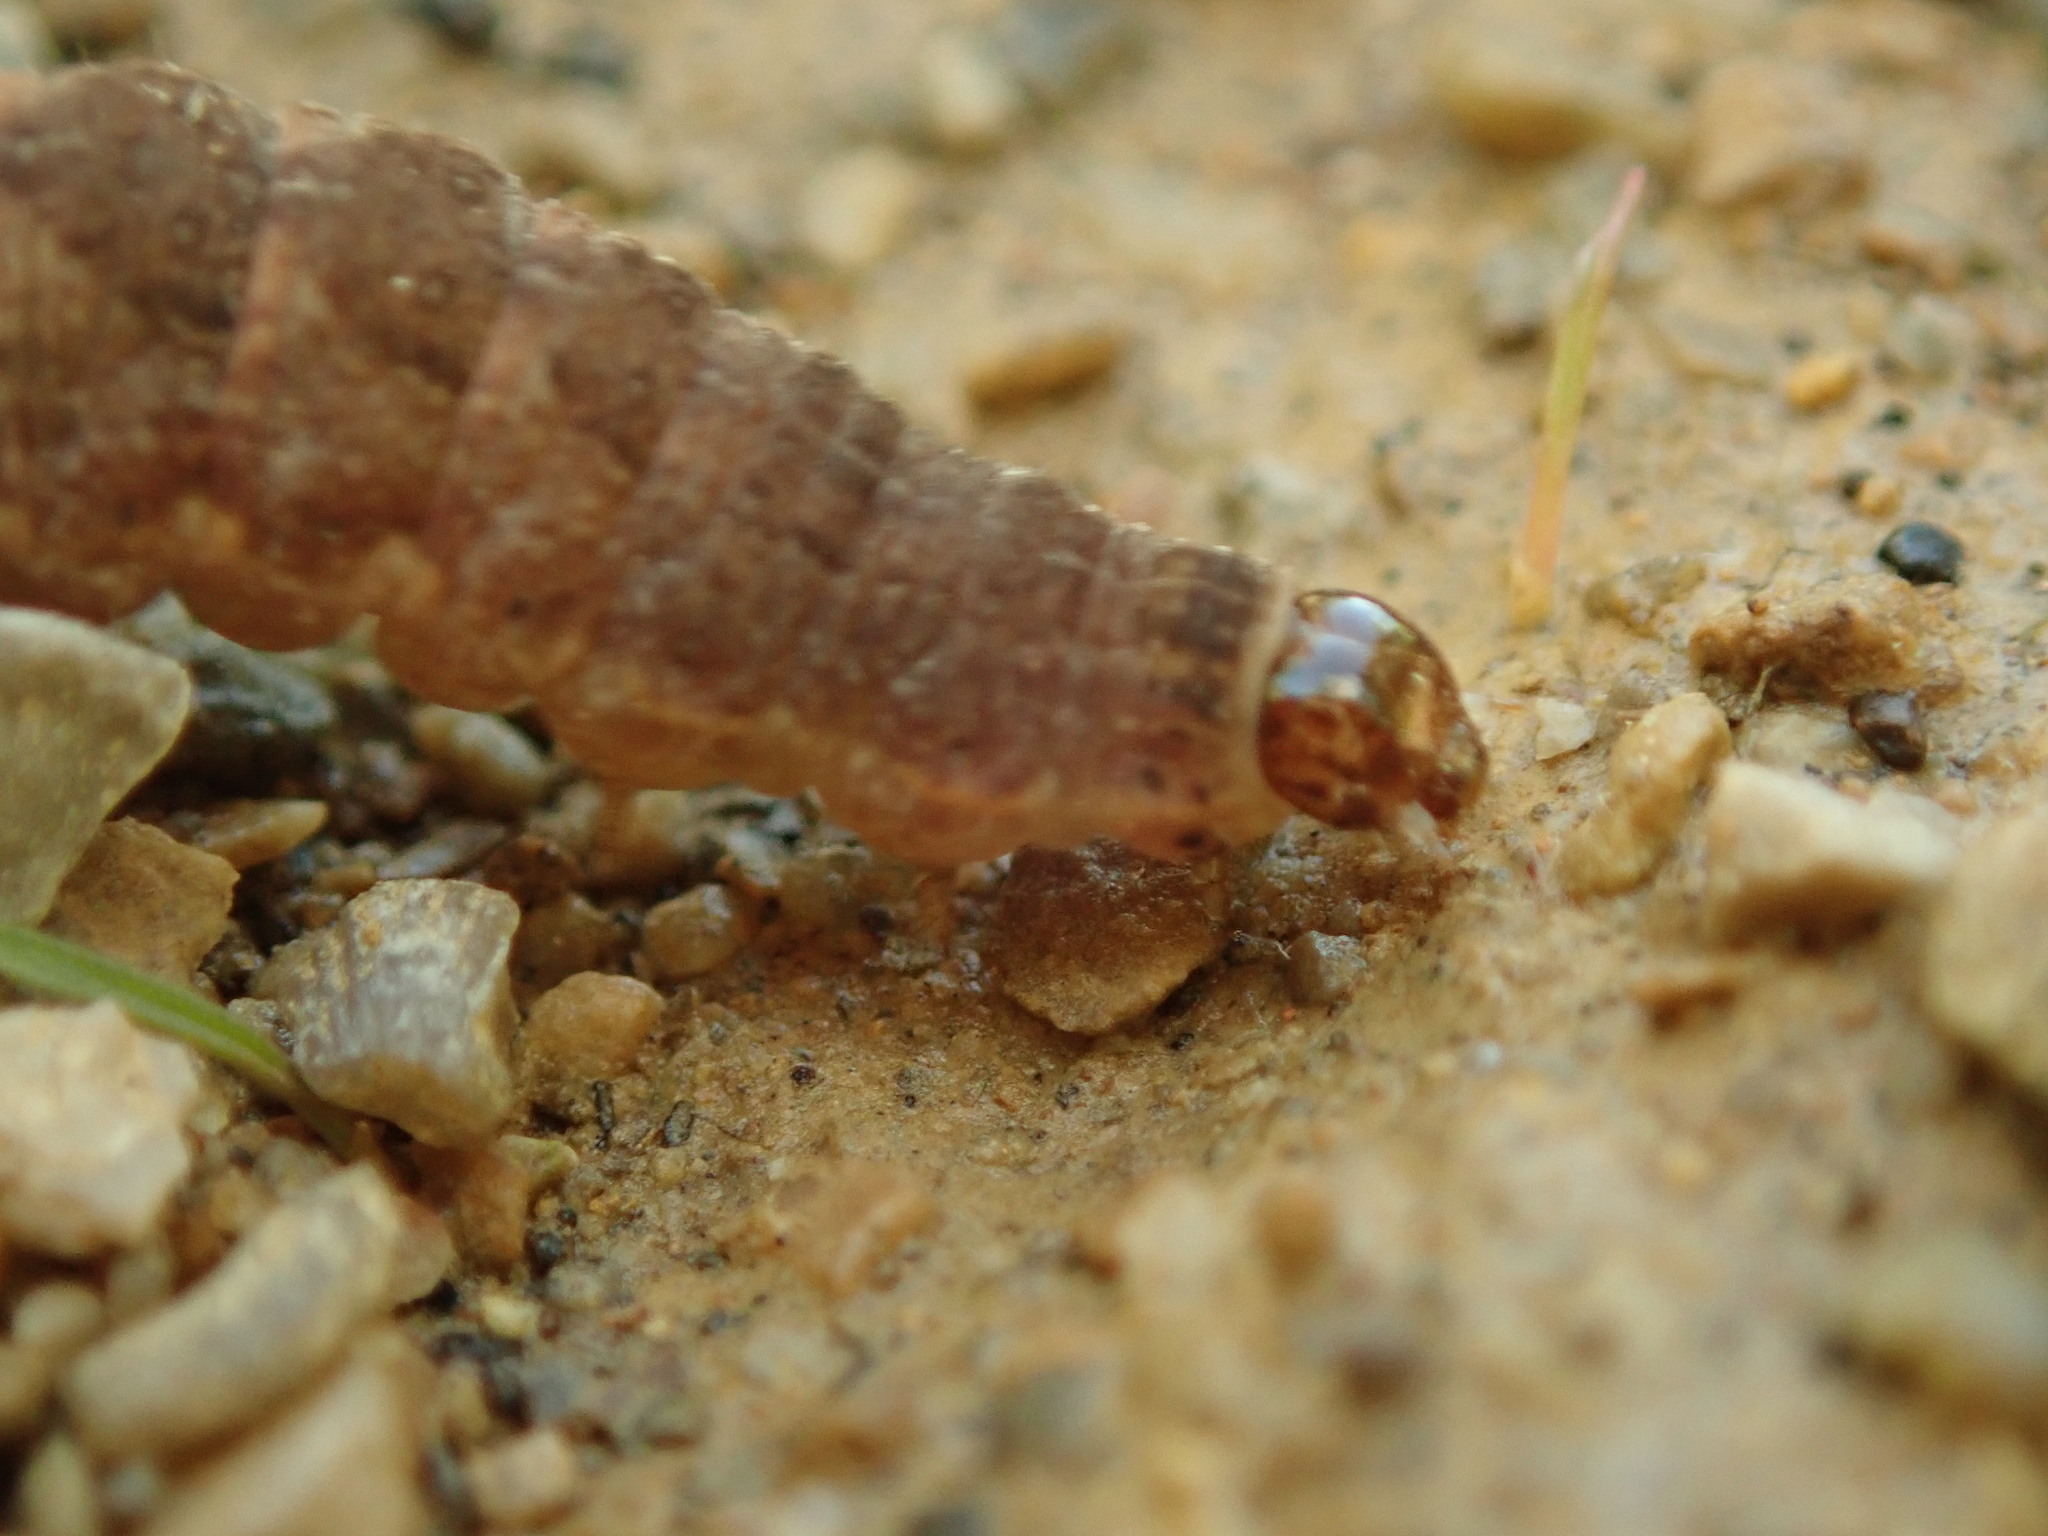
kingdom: Animalia
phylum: Arthropoda
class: Insecta
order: Lepidoptera
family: Noctuidae
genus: Agrochola
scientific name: Agrochola bicolorago
